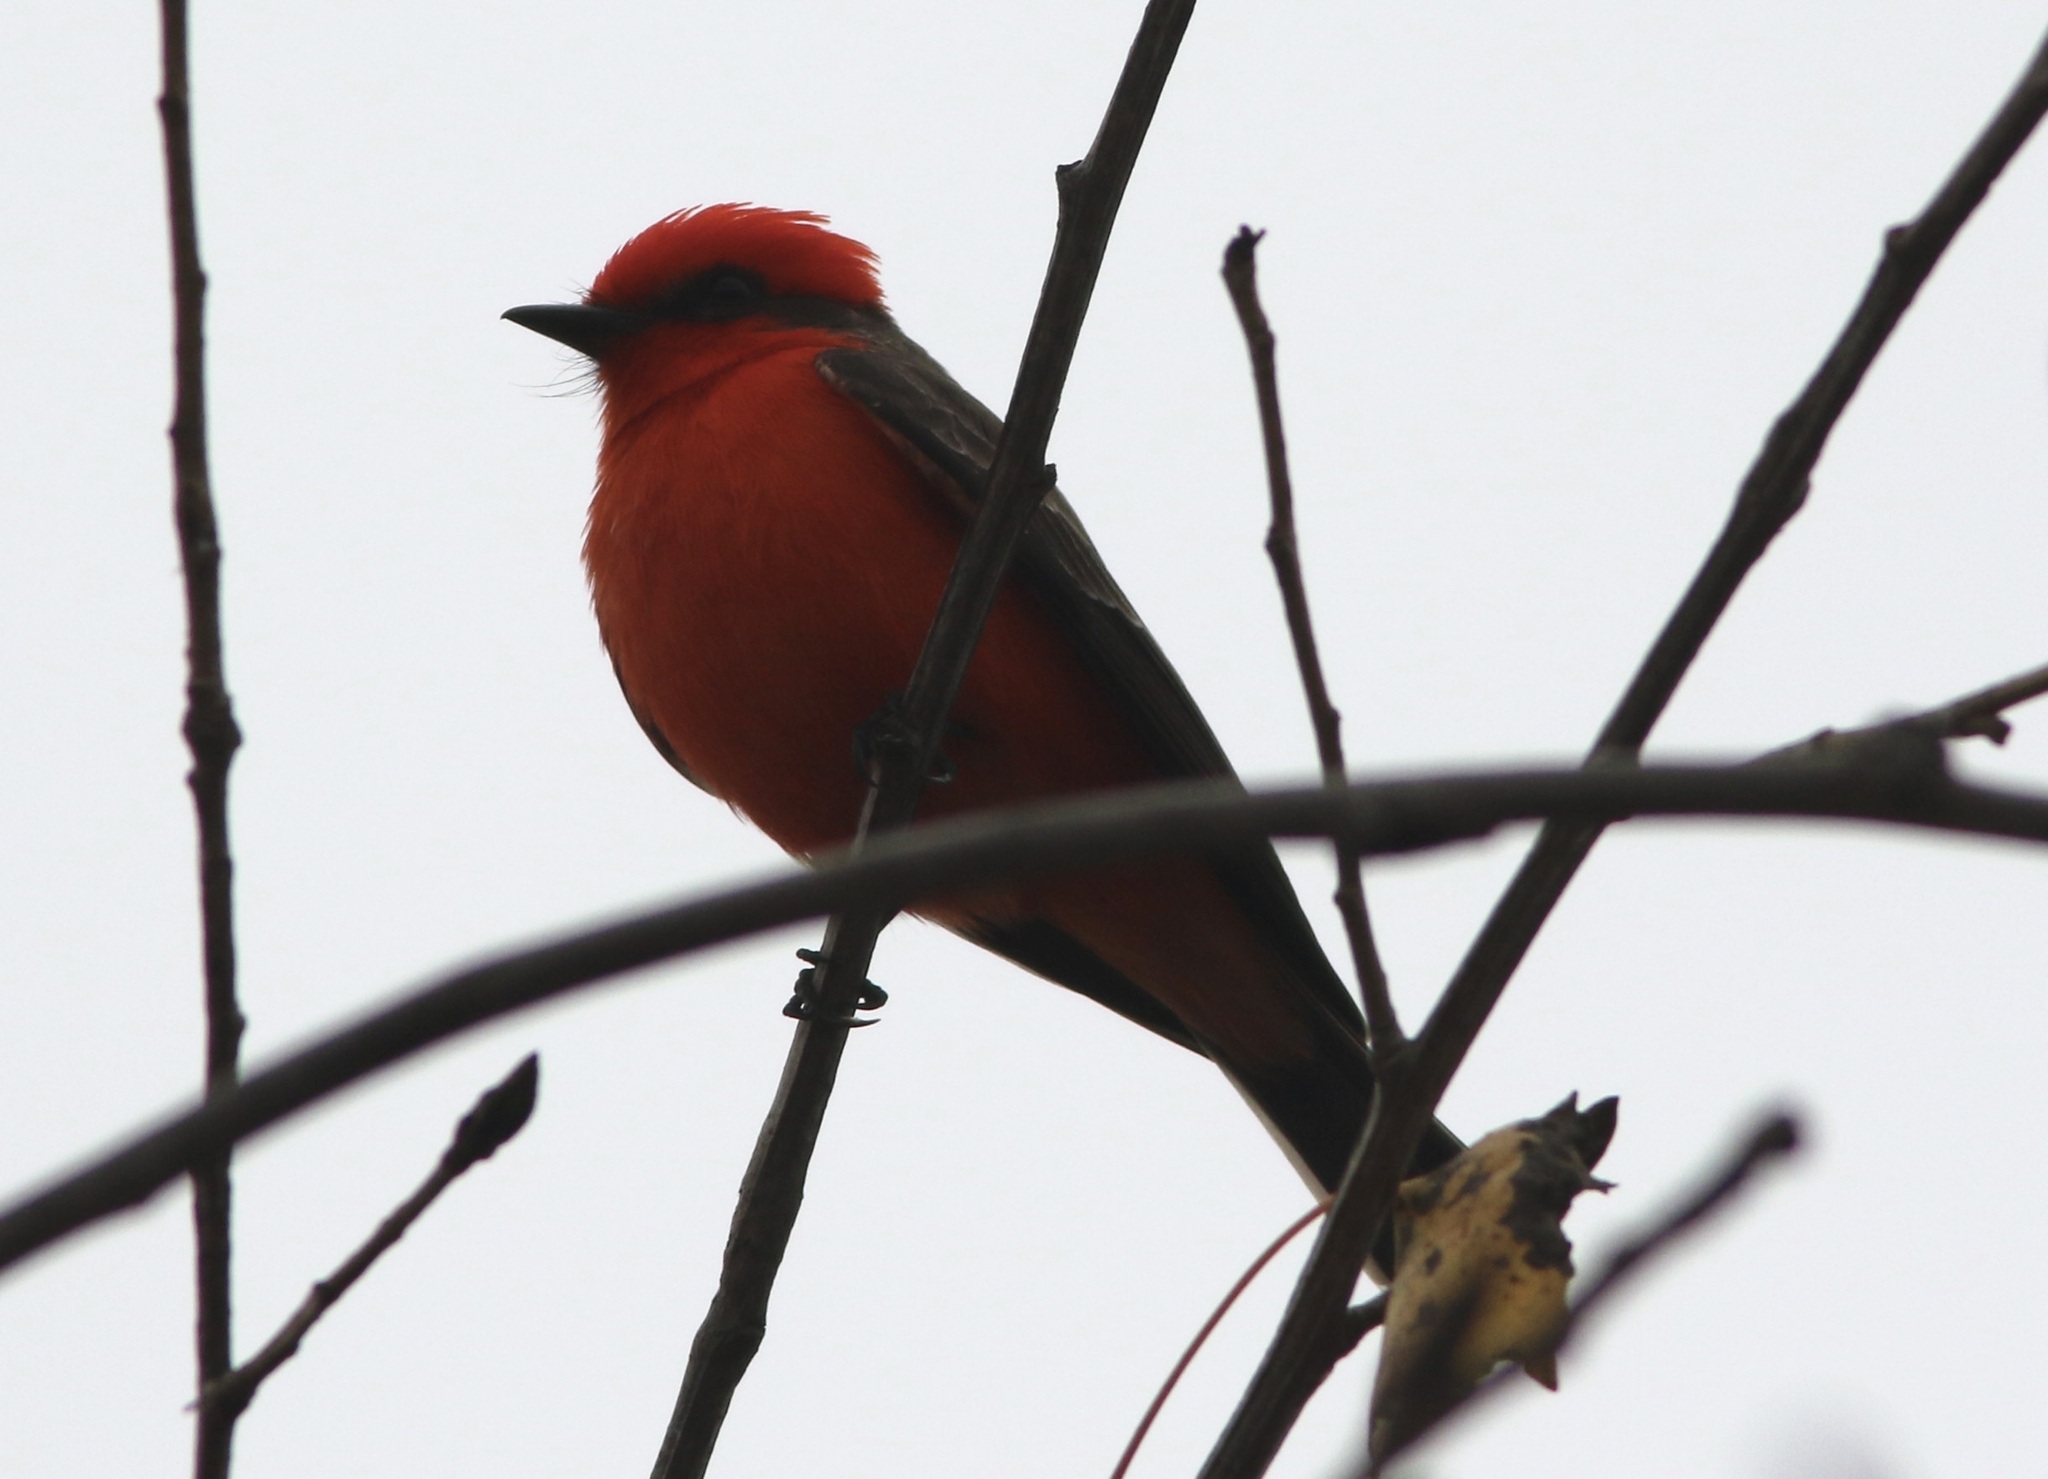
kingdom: Animalia
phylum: Chordata
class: Aves
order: Passeriformes
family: Tyrannidae
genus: Pyrocephalus
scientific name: Pyrocephalus rubinus
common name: Vermilion flycatcher
